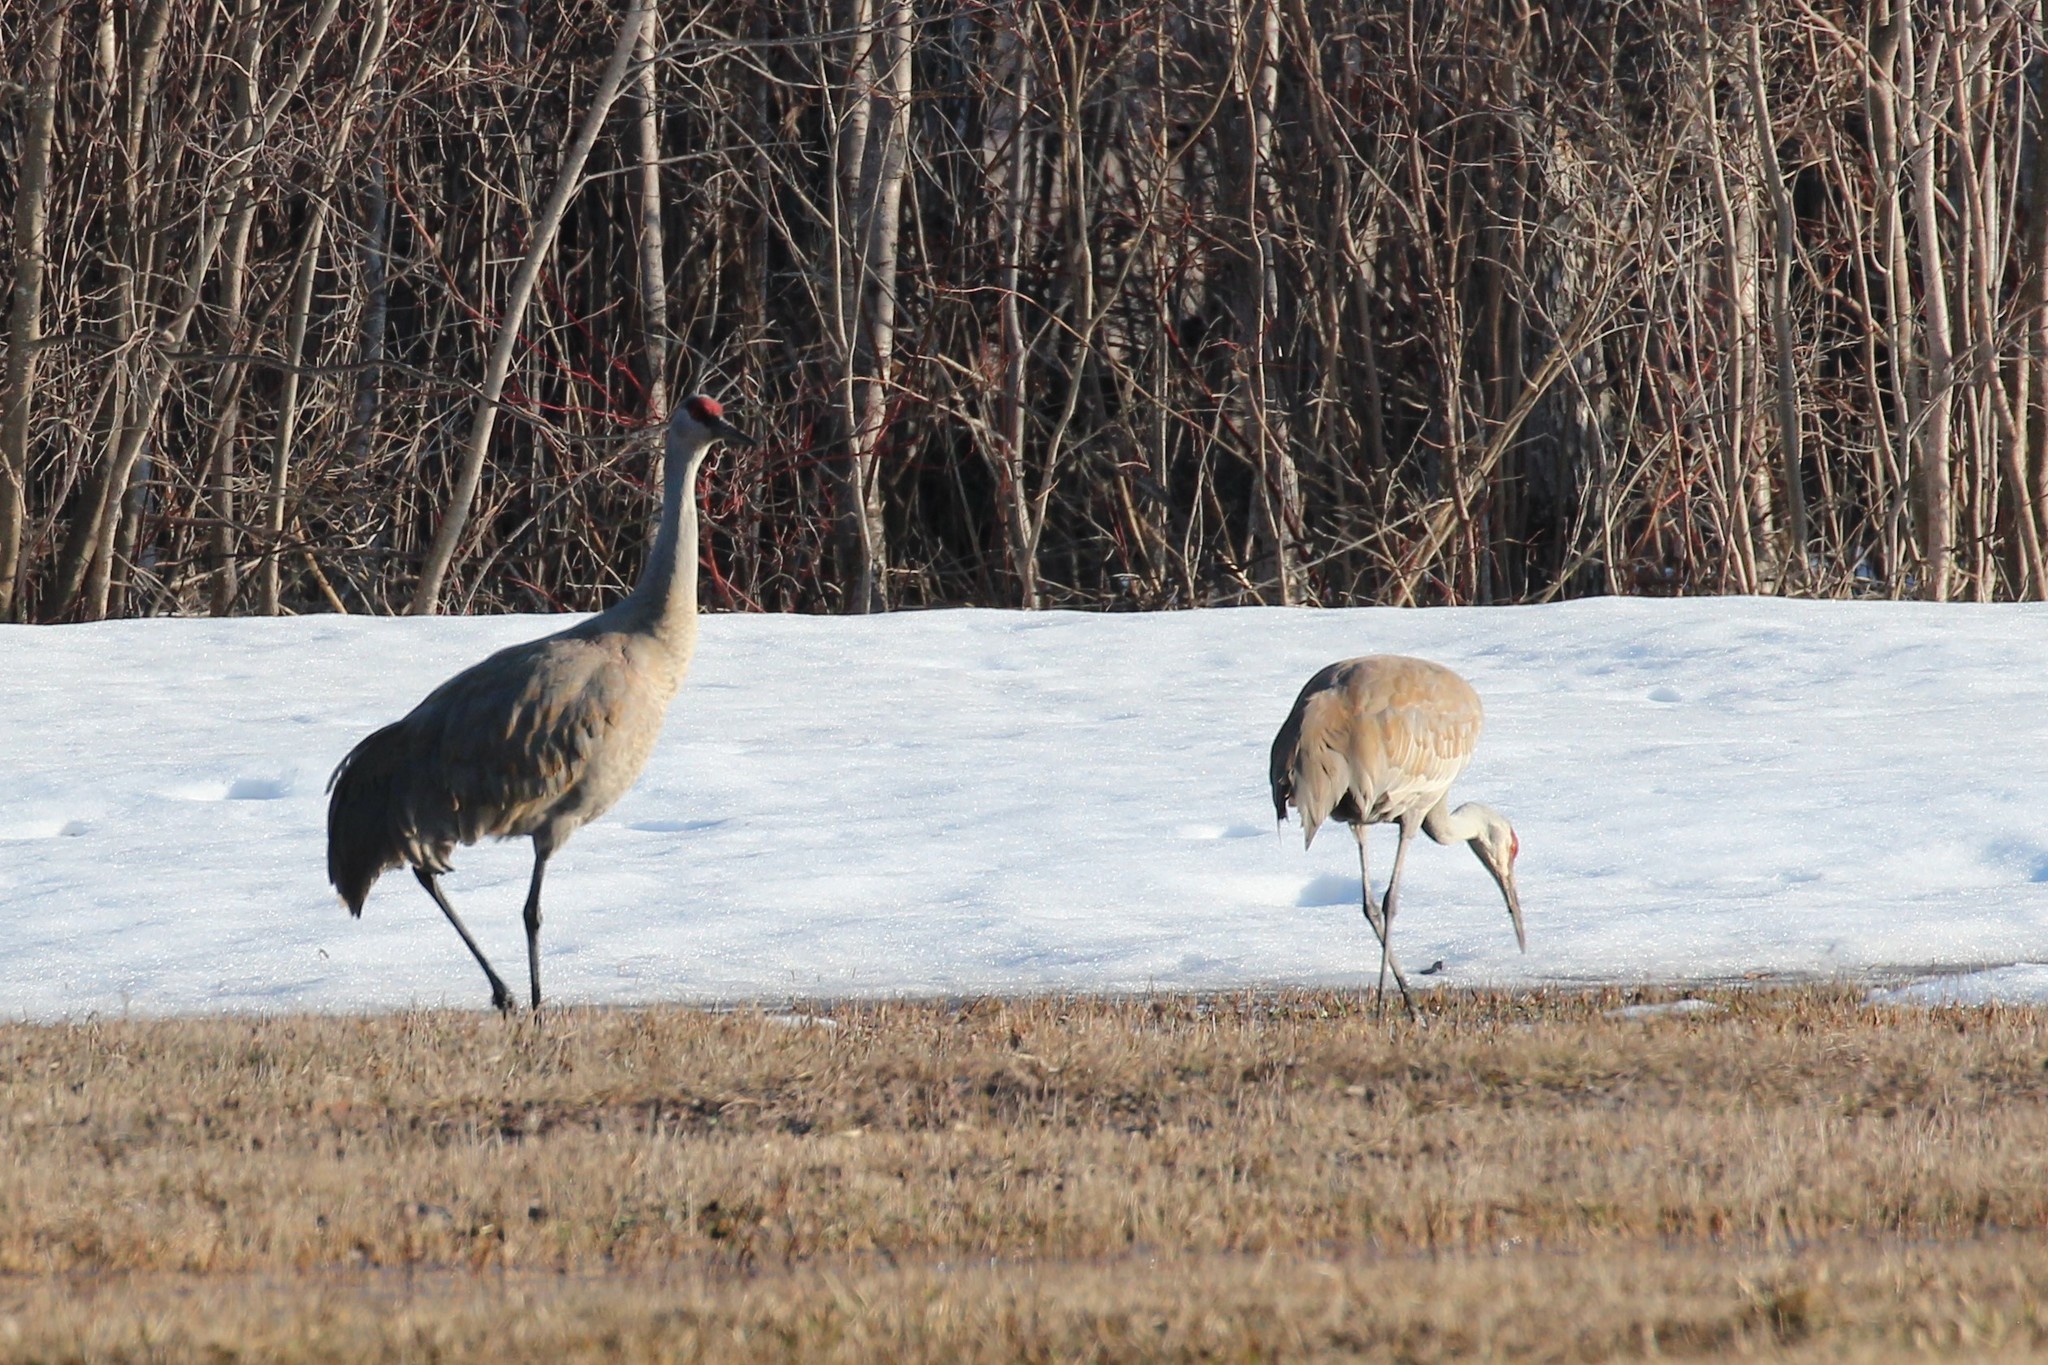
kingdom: Animalia
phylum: Chordata
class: Aves
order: Gruiformes
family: Gruidae
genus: Grus
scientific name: Grus canadensis
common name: Sandhill crane
